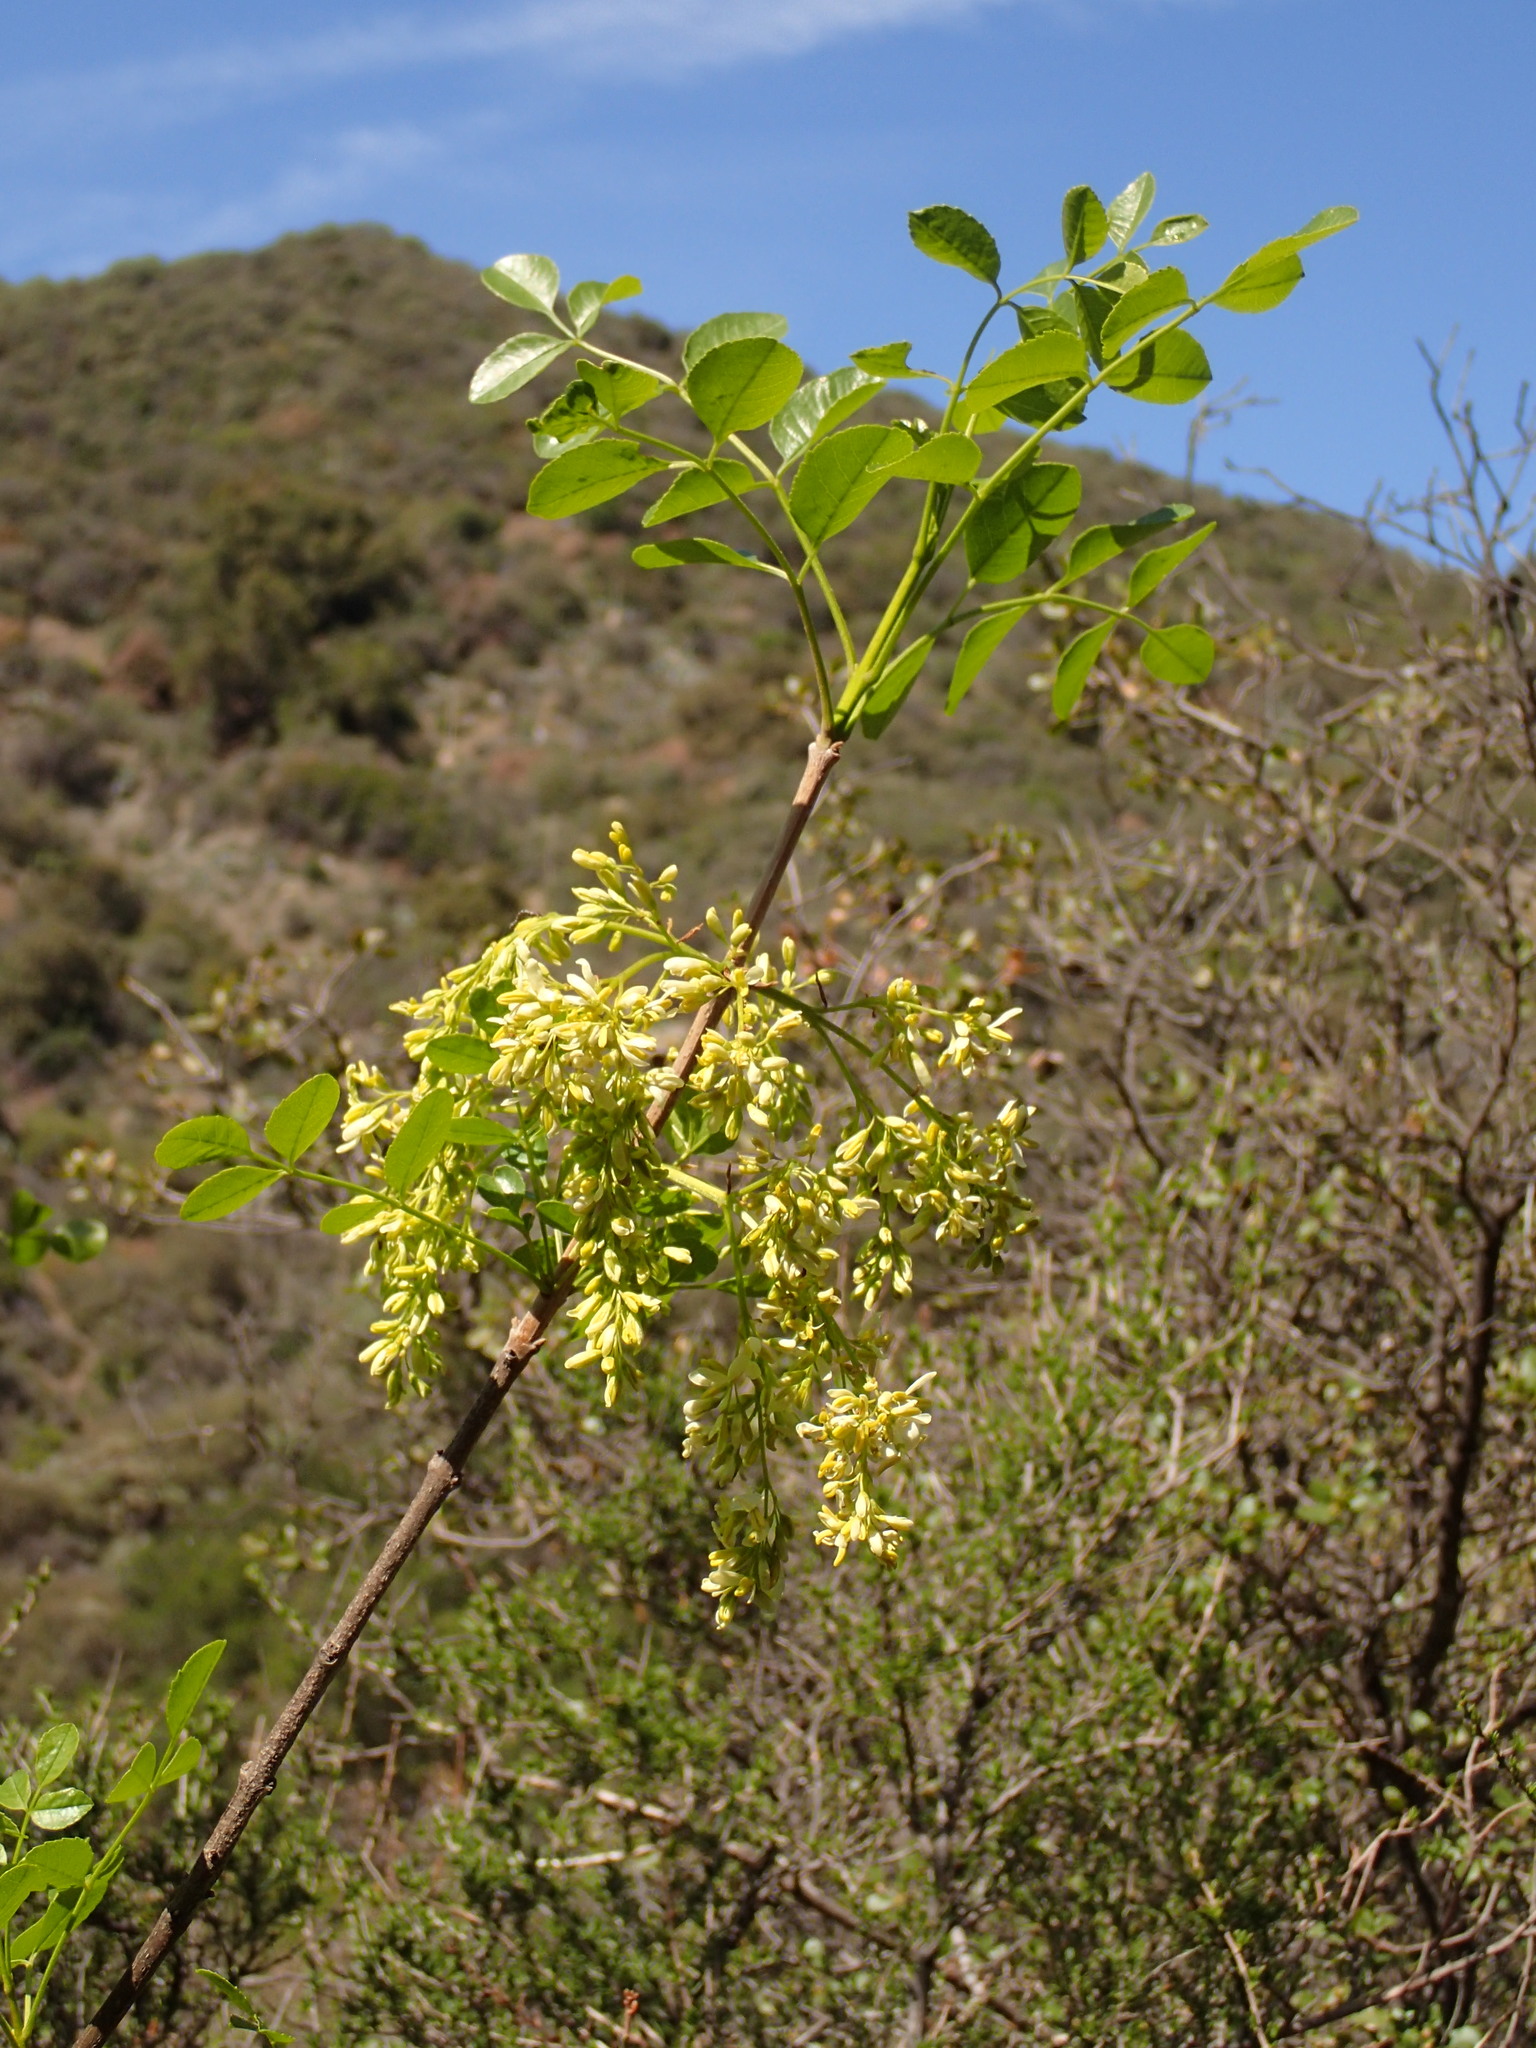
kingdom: Plantae
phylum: Tracheophyta
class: Magnoliopsida
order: Lamiales
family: Oleaceae
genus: Fraxinus
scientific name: Fraxinus dipetala
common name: California ash
